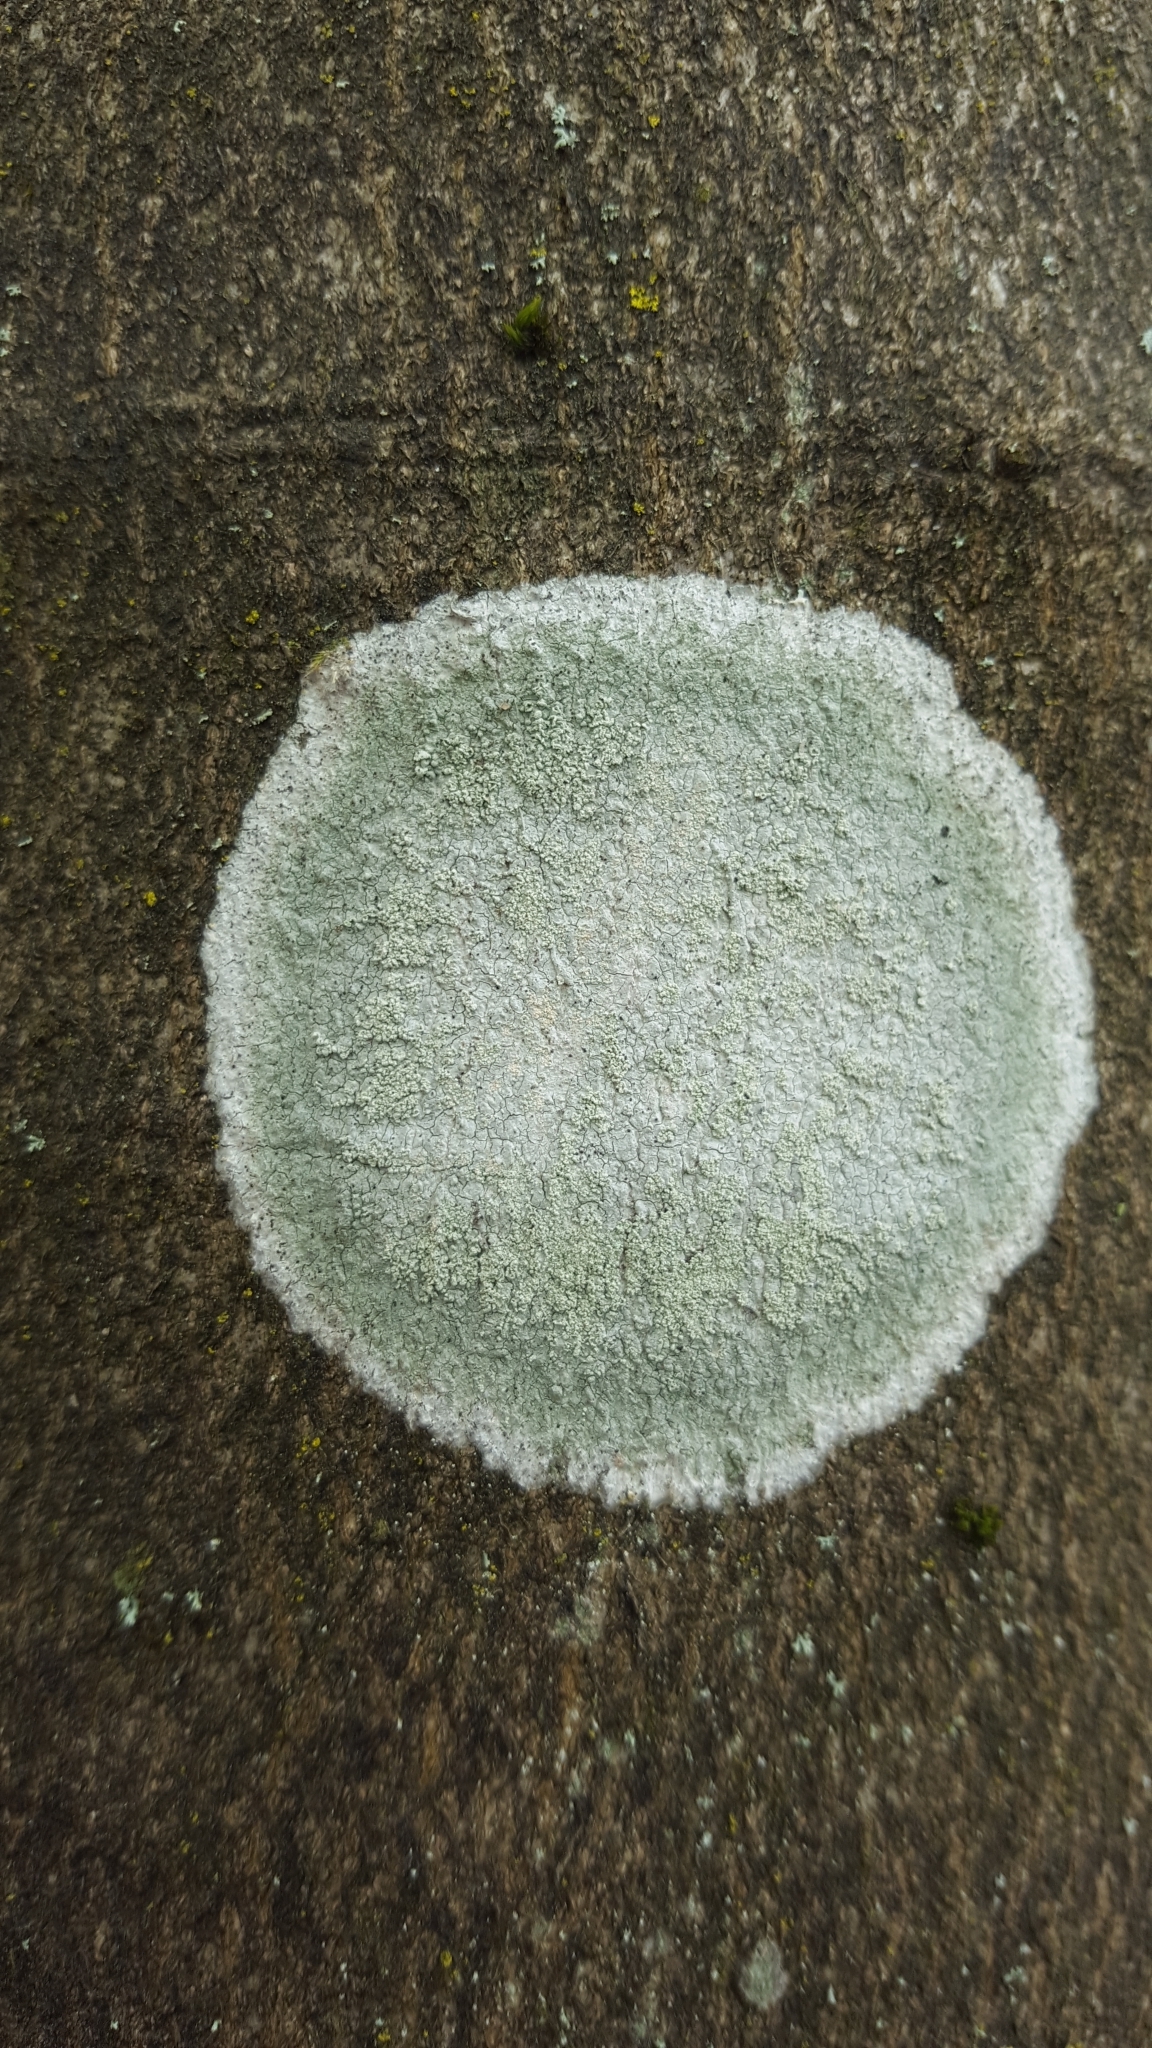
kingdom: Fungi
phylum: Ascomycota
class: Lecanoromycetes
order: Ostropales
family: Phlyctidaceae
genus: Phlyctis
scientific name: Phlyctis argena
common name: Whitewash lichen
